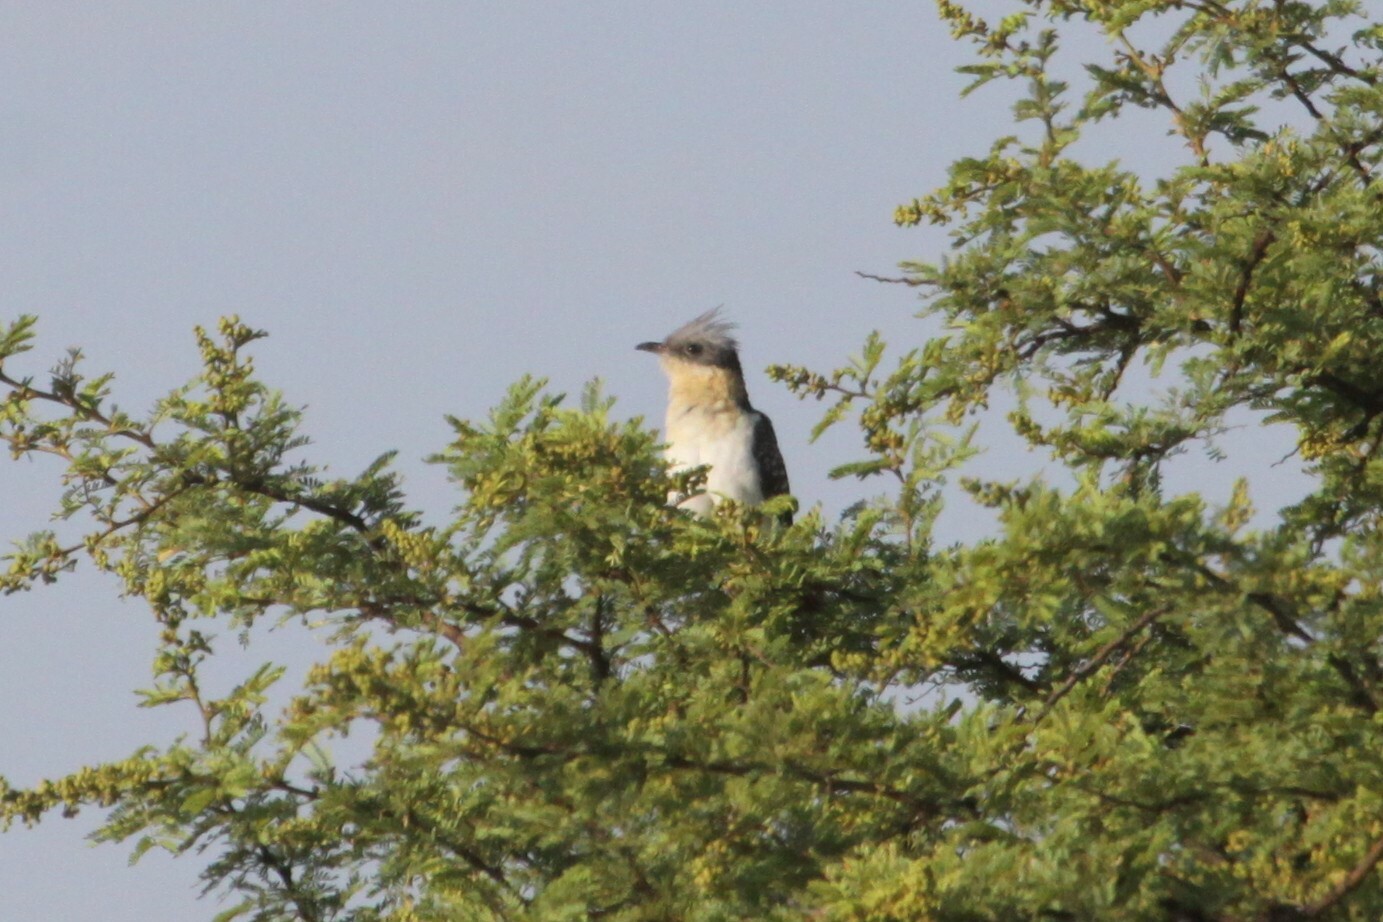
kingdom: Animalia
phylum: Chordata
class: Aves
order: Cuculiformes
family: Cuculidae
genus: Clamator
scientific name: Clamator glandarius
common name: Great spotted cuckoo
